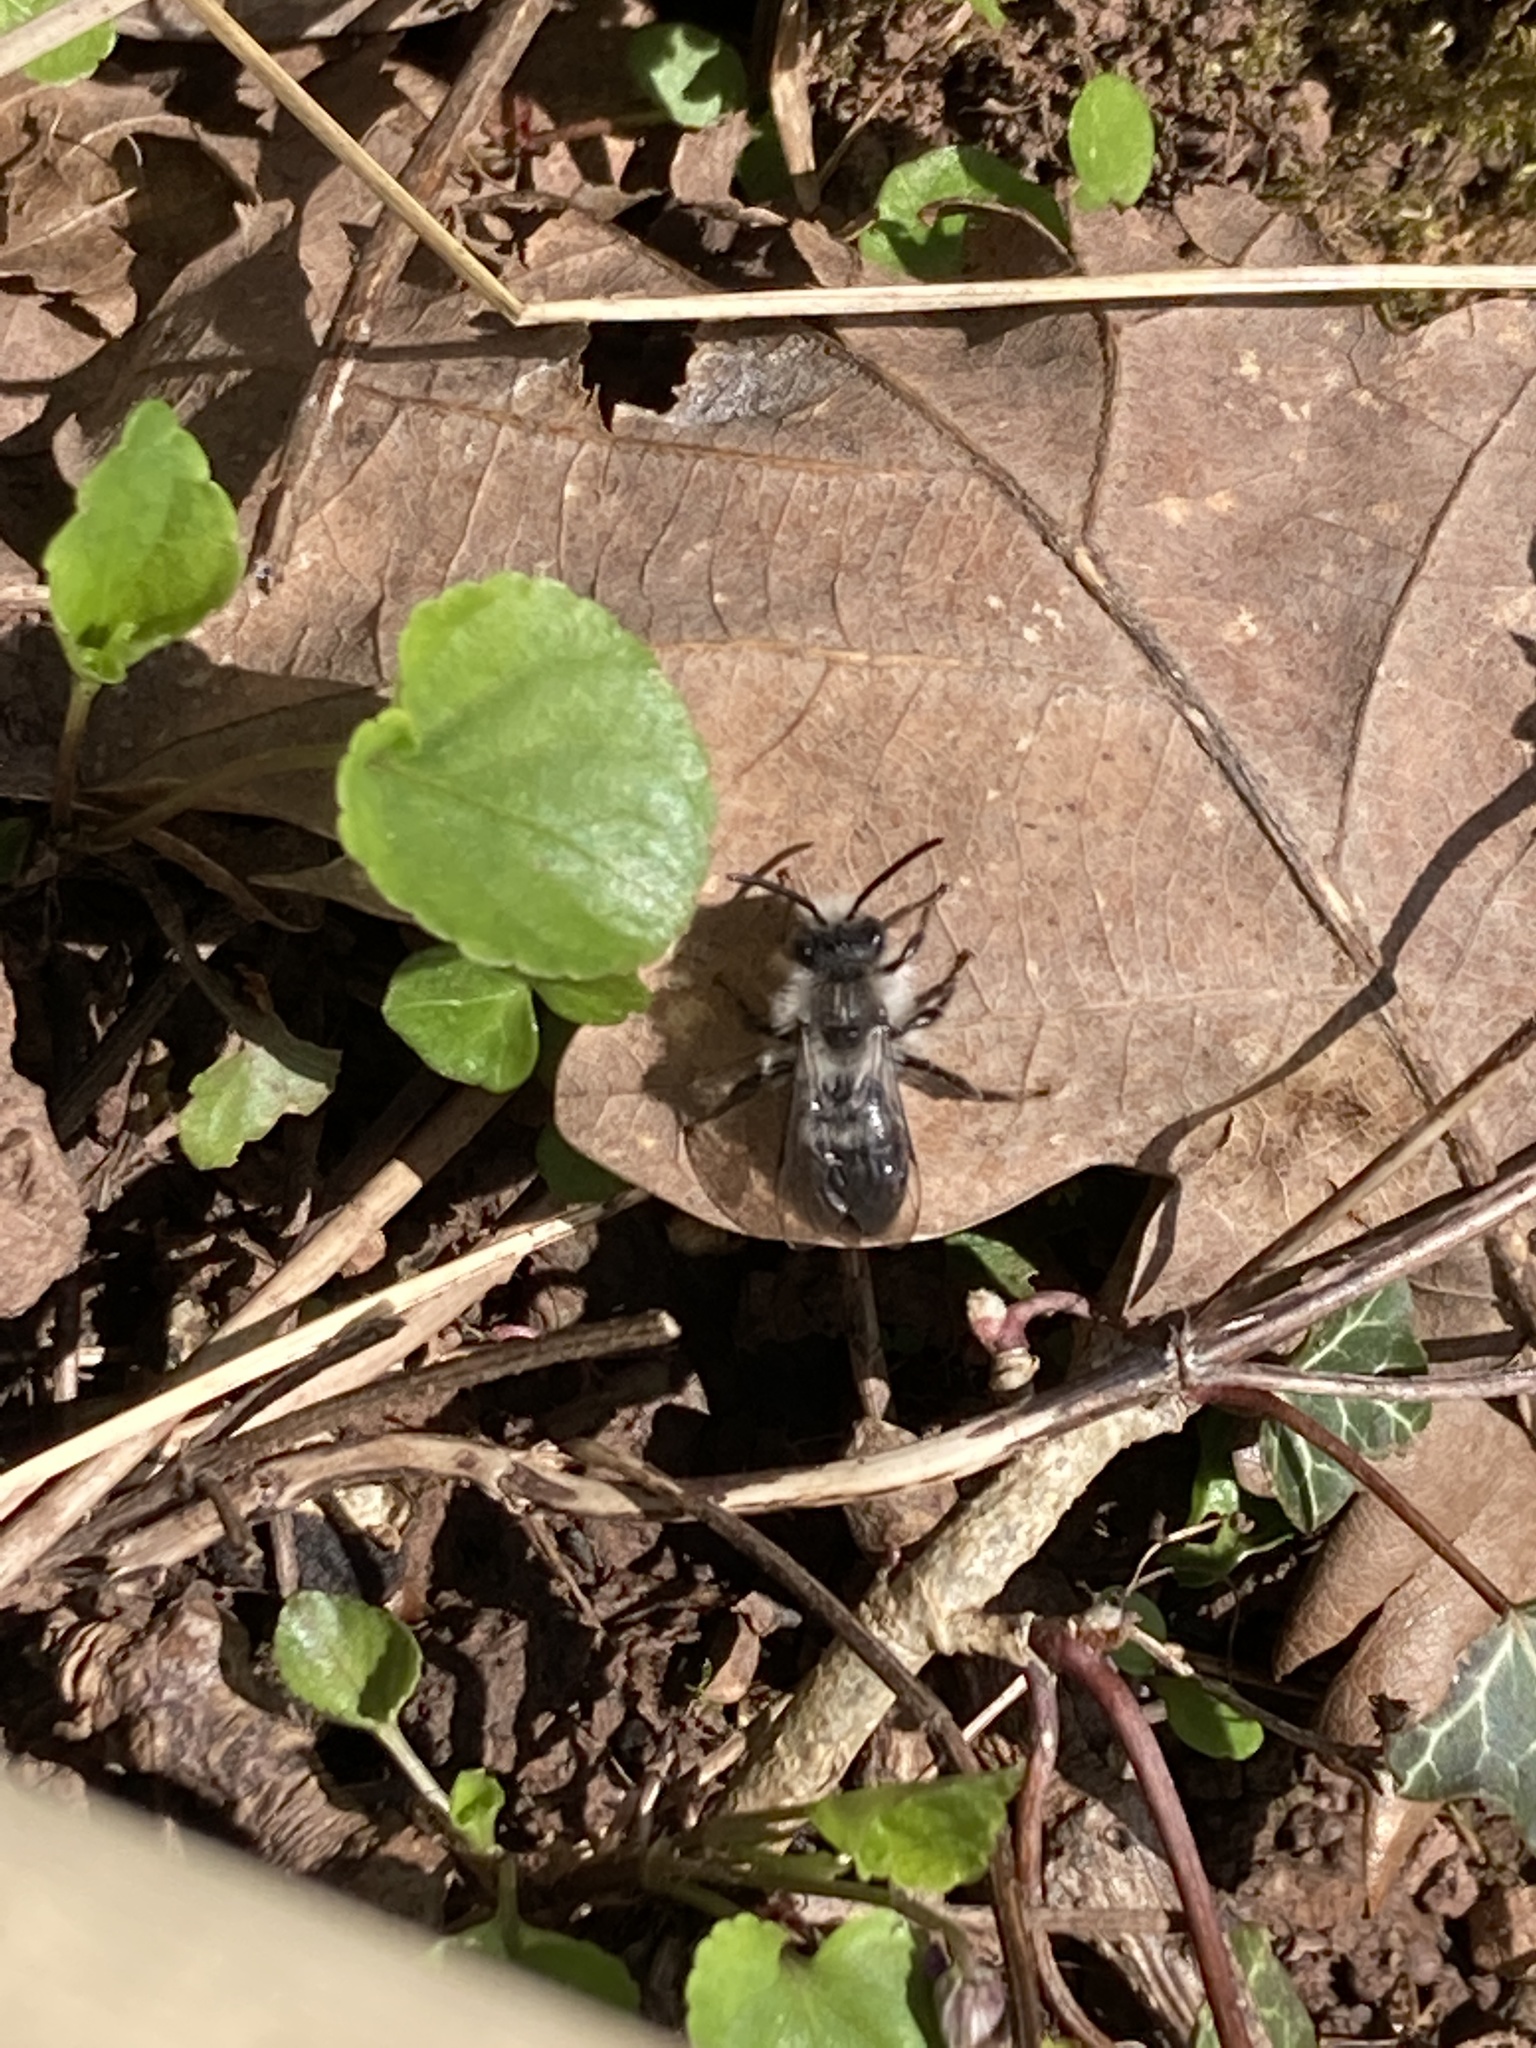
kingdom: Animalia
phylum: Arthropoda
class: Insecta
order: Hymenoptera
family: Andrenidae
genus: Andrena
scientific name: Andrena cineraria
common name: Ashy mining bee
